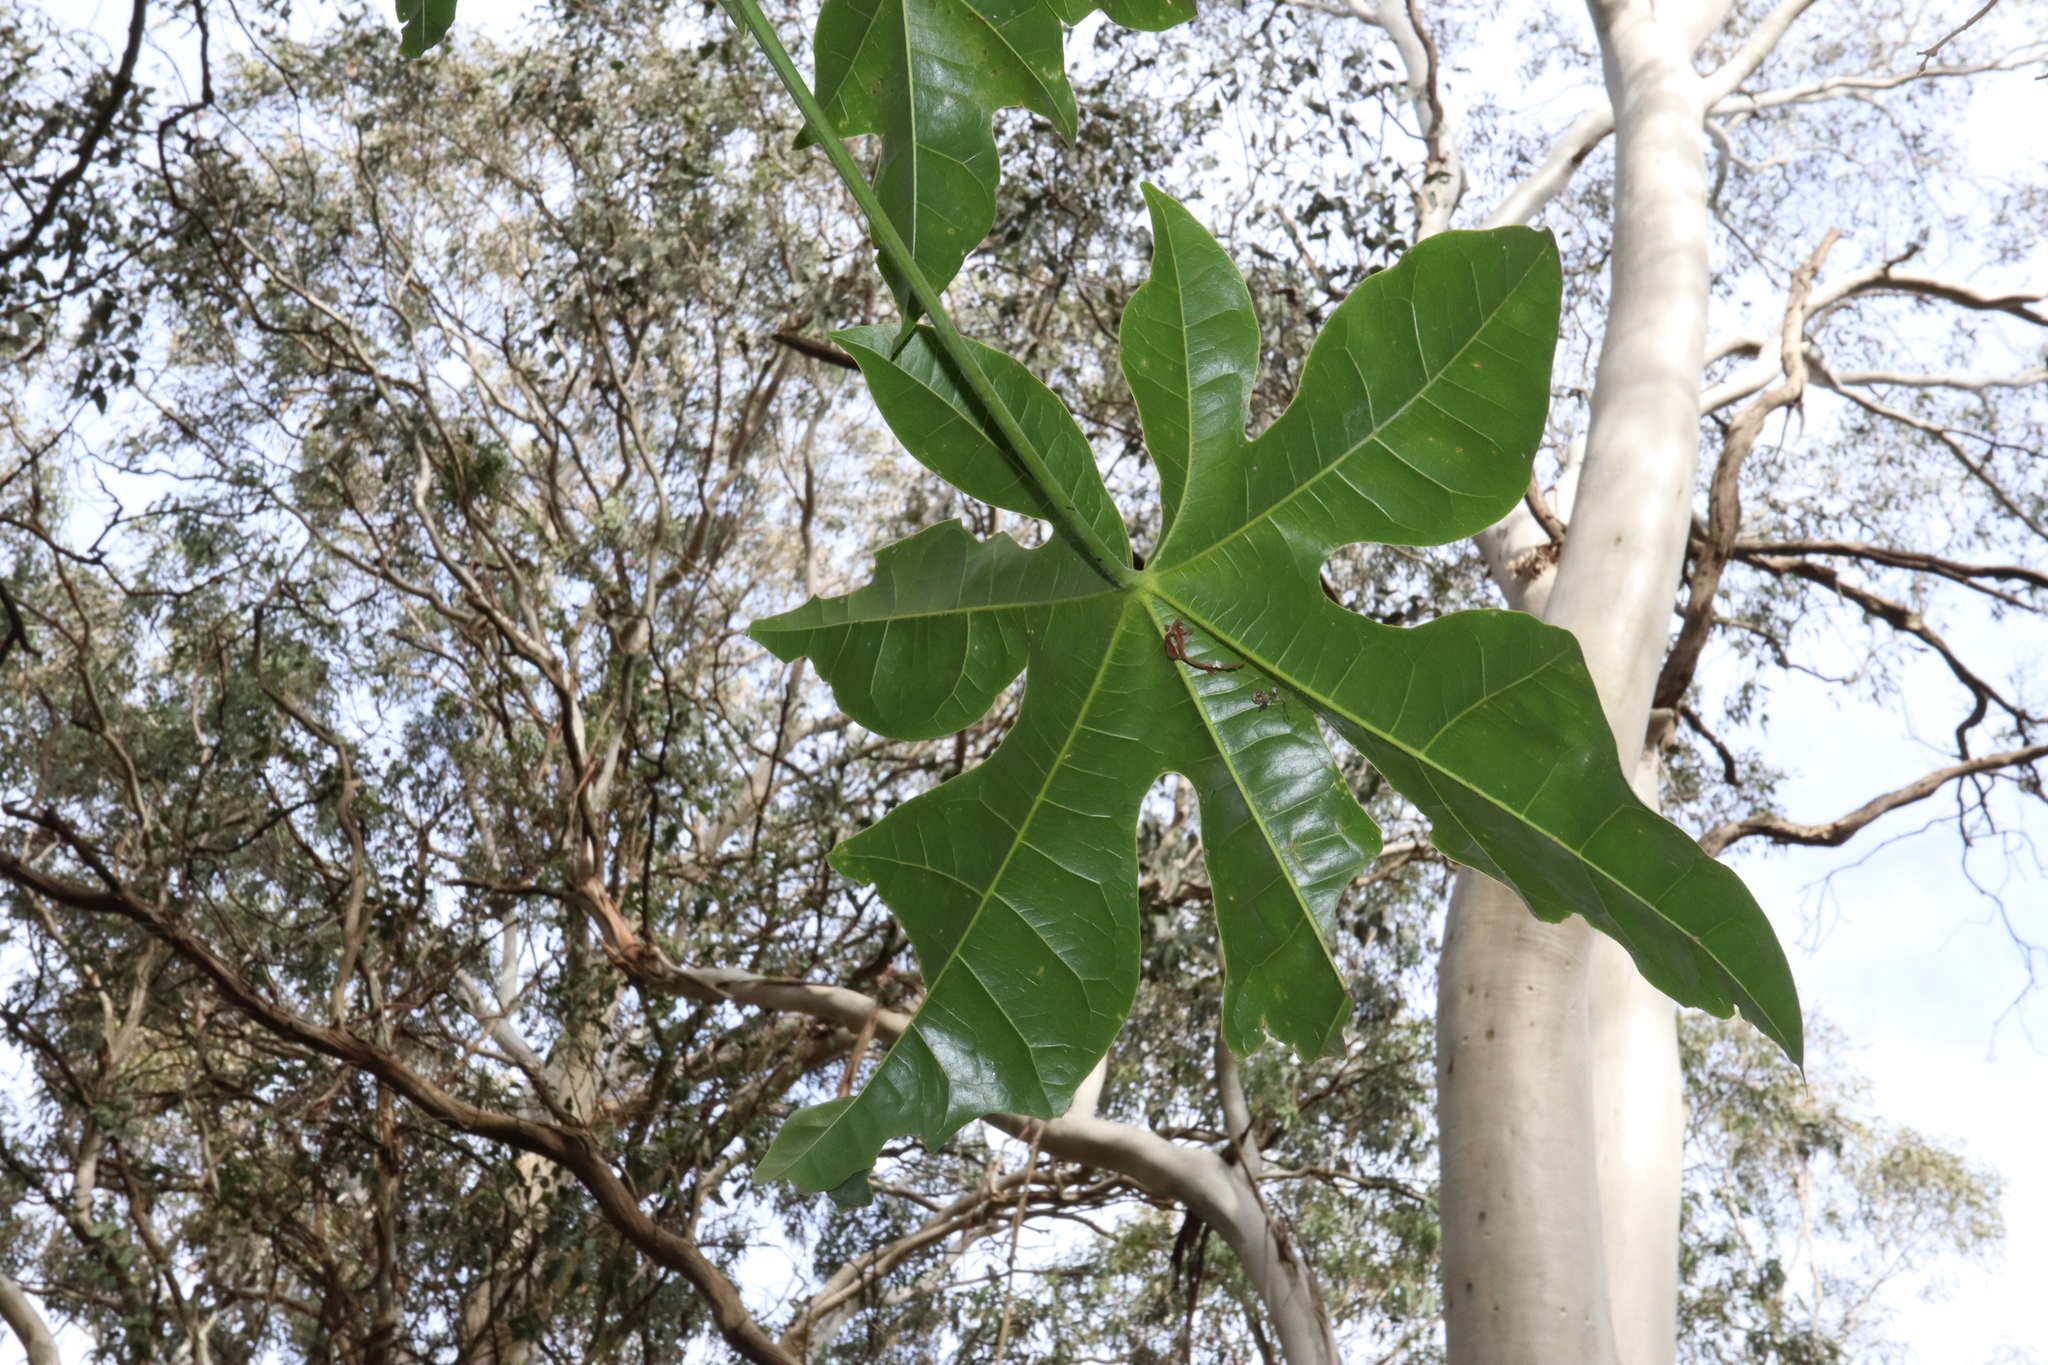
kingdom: Plantae
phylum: Tracheophyta
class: Magnoliopsida
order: Malvales
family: Malvaceae
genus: Brachychiton
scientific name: Brachychiton acerifolius
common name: Illawarra flame tree
